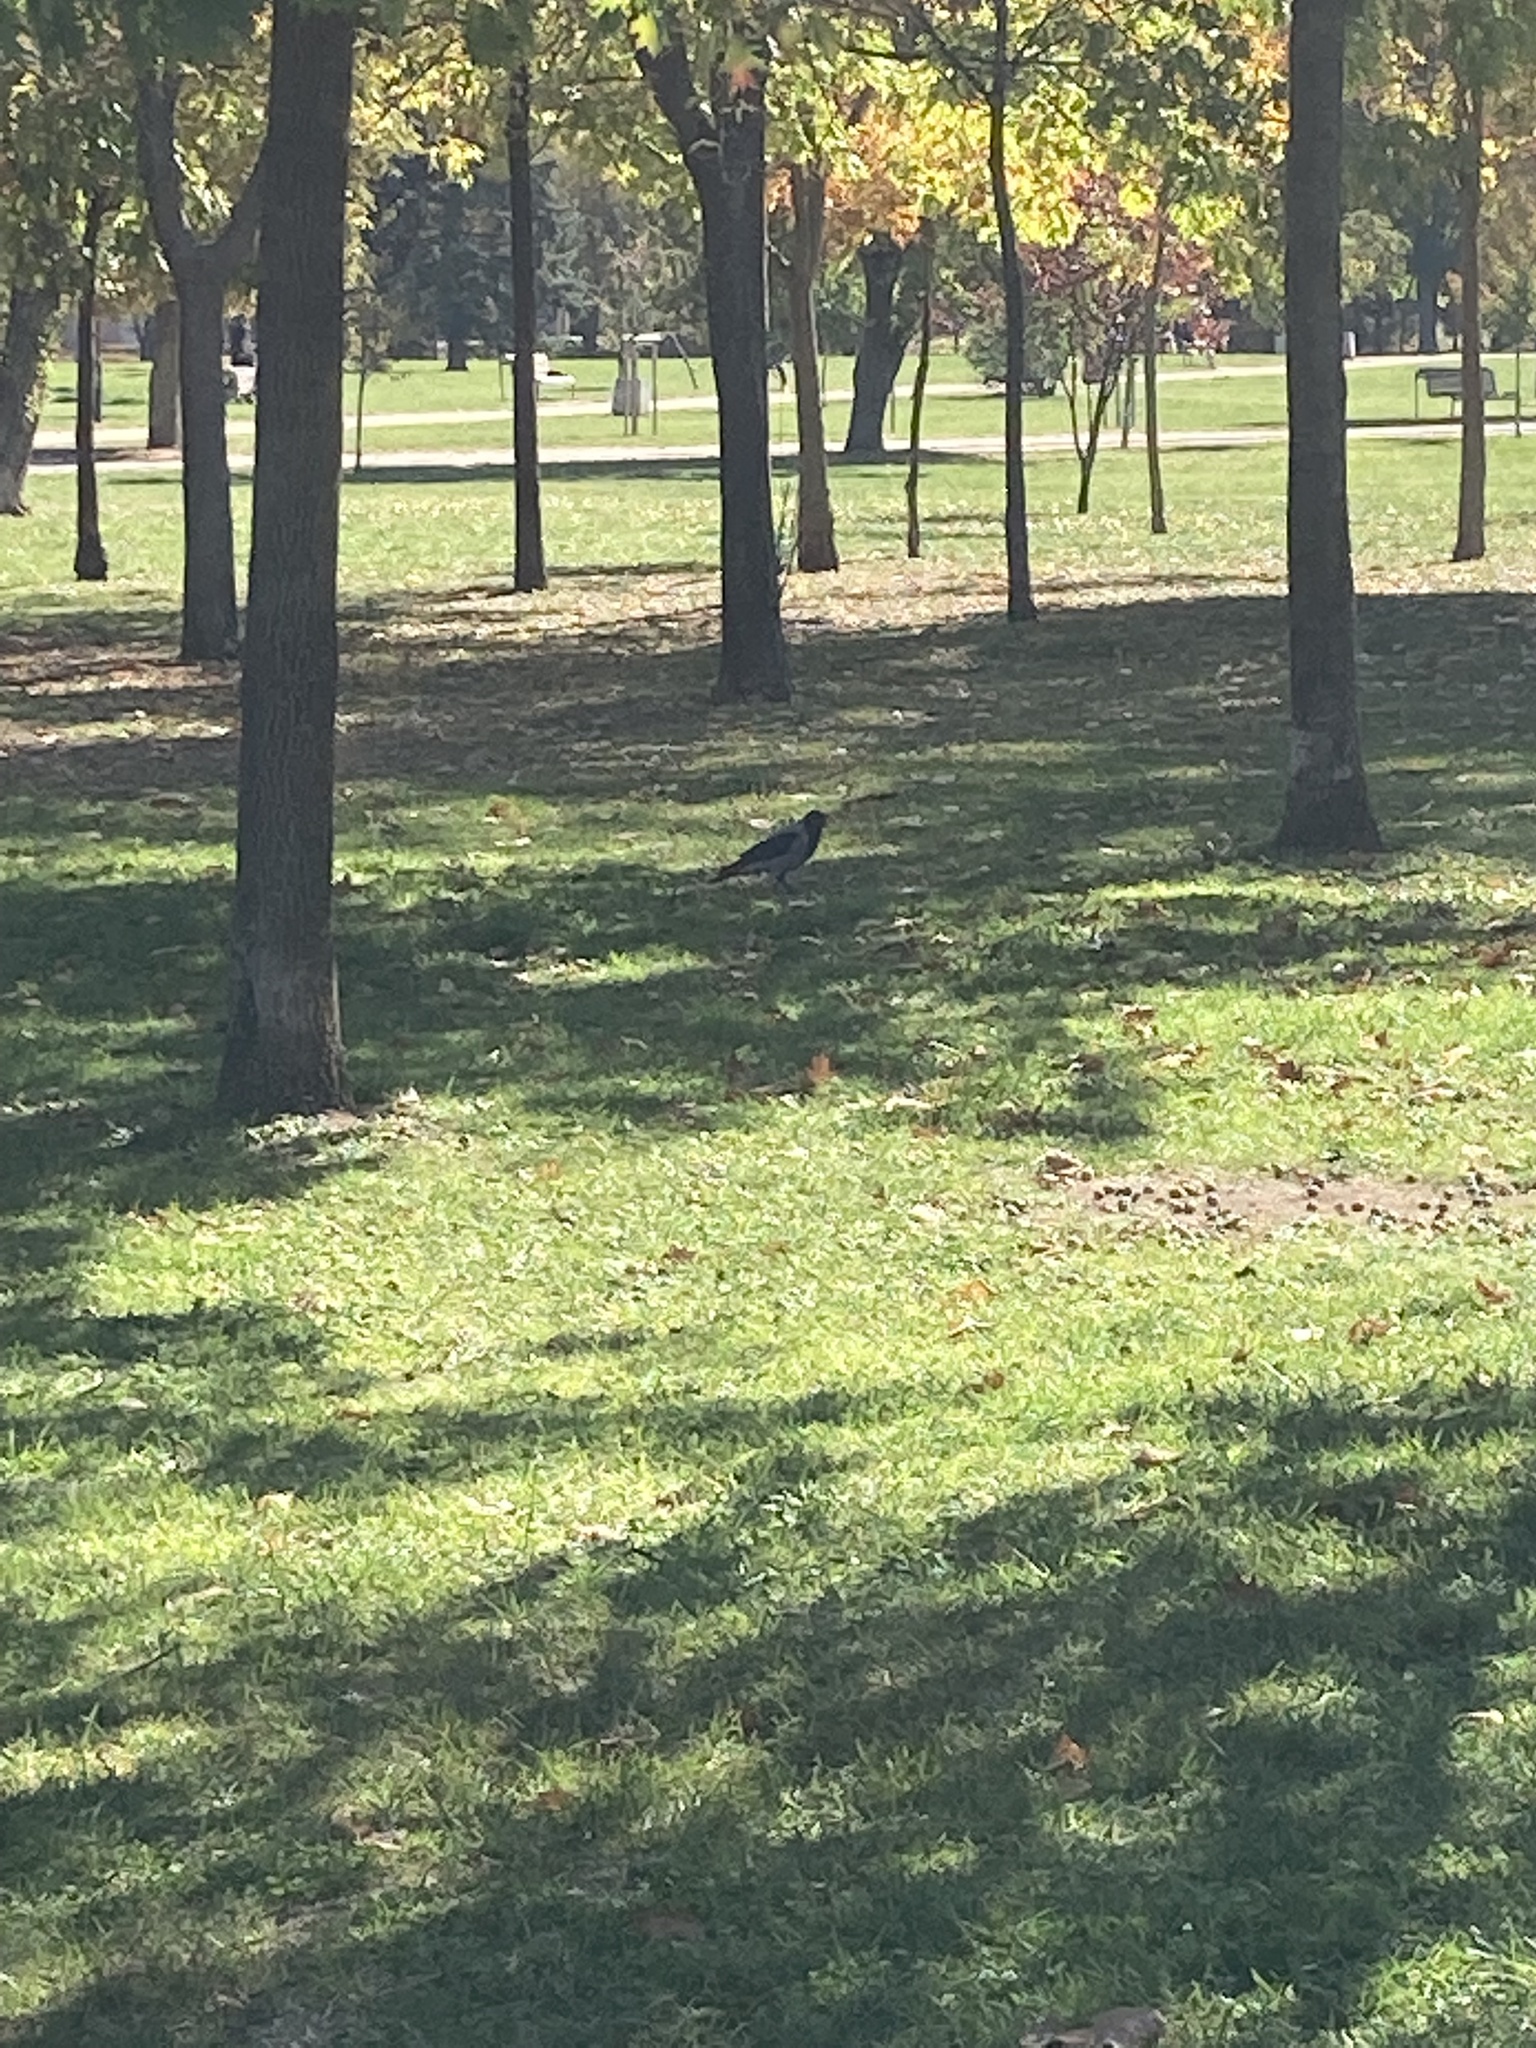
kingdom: Animalia
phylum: Chordata
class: Aves
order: Passeriformes
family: Corvidae
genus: Corvus
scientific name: Corvus cornix
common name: Hooded crow
